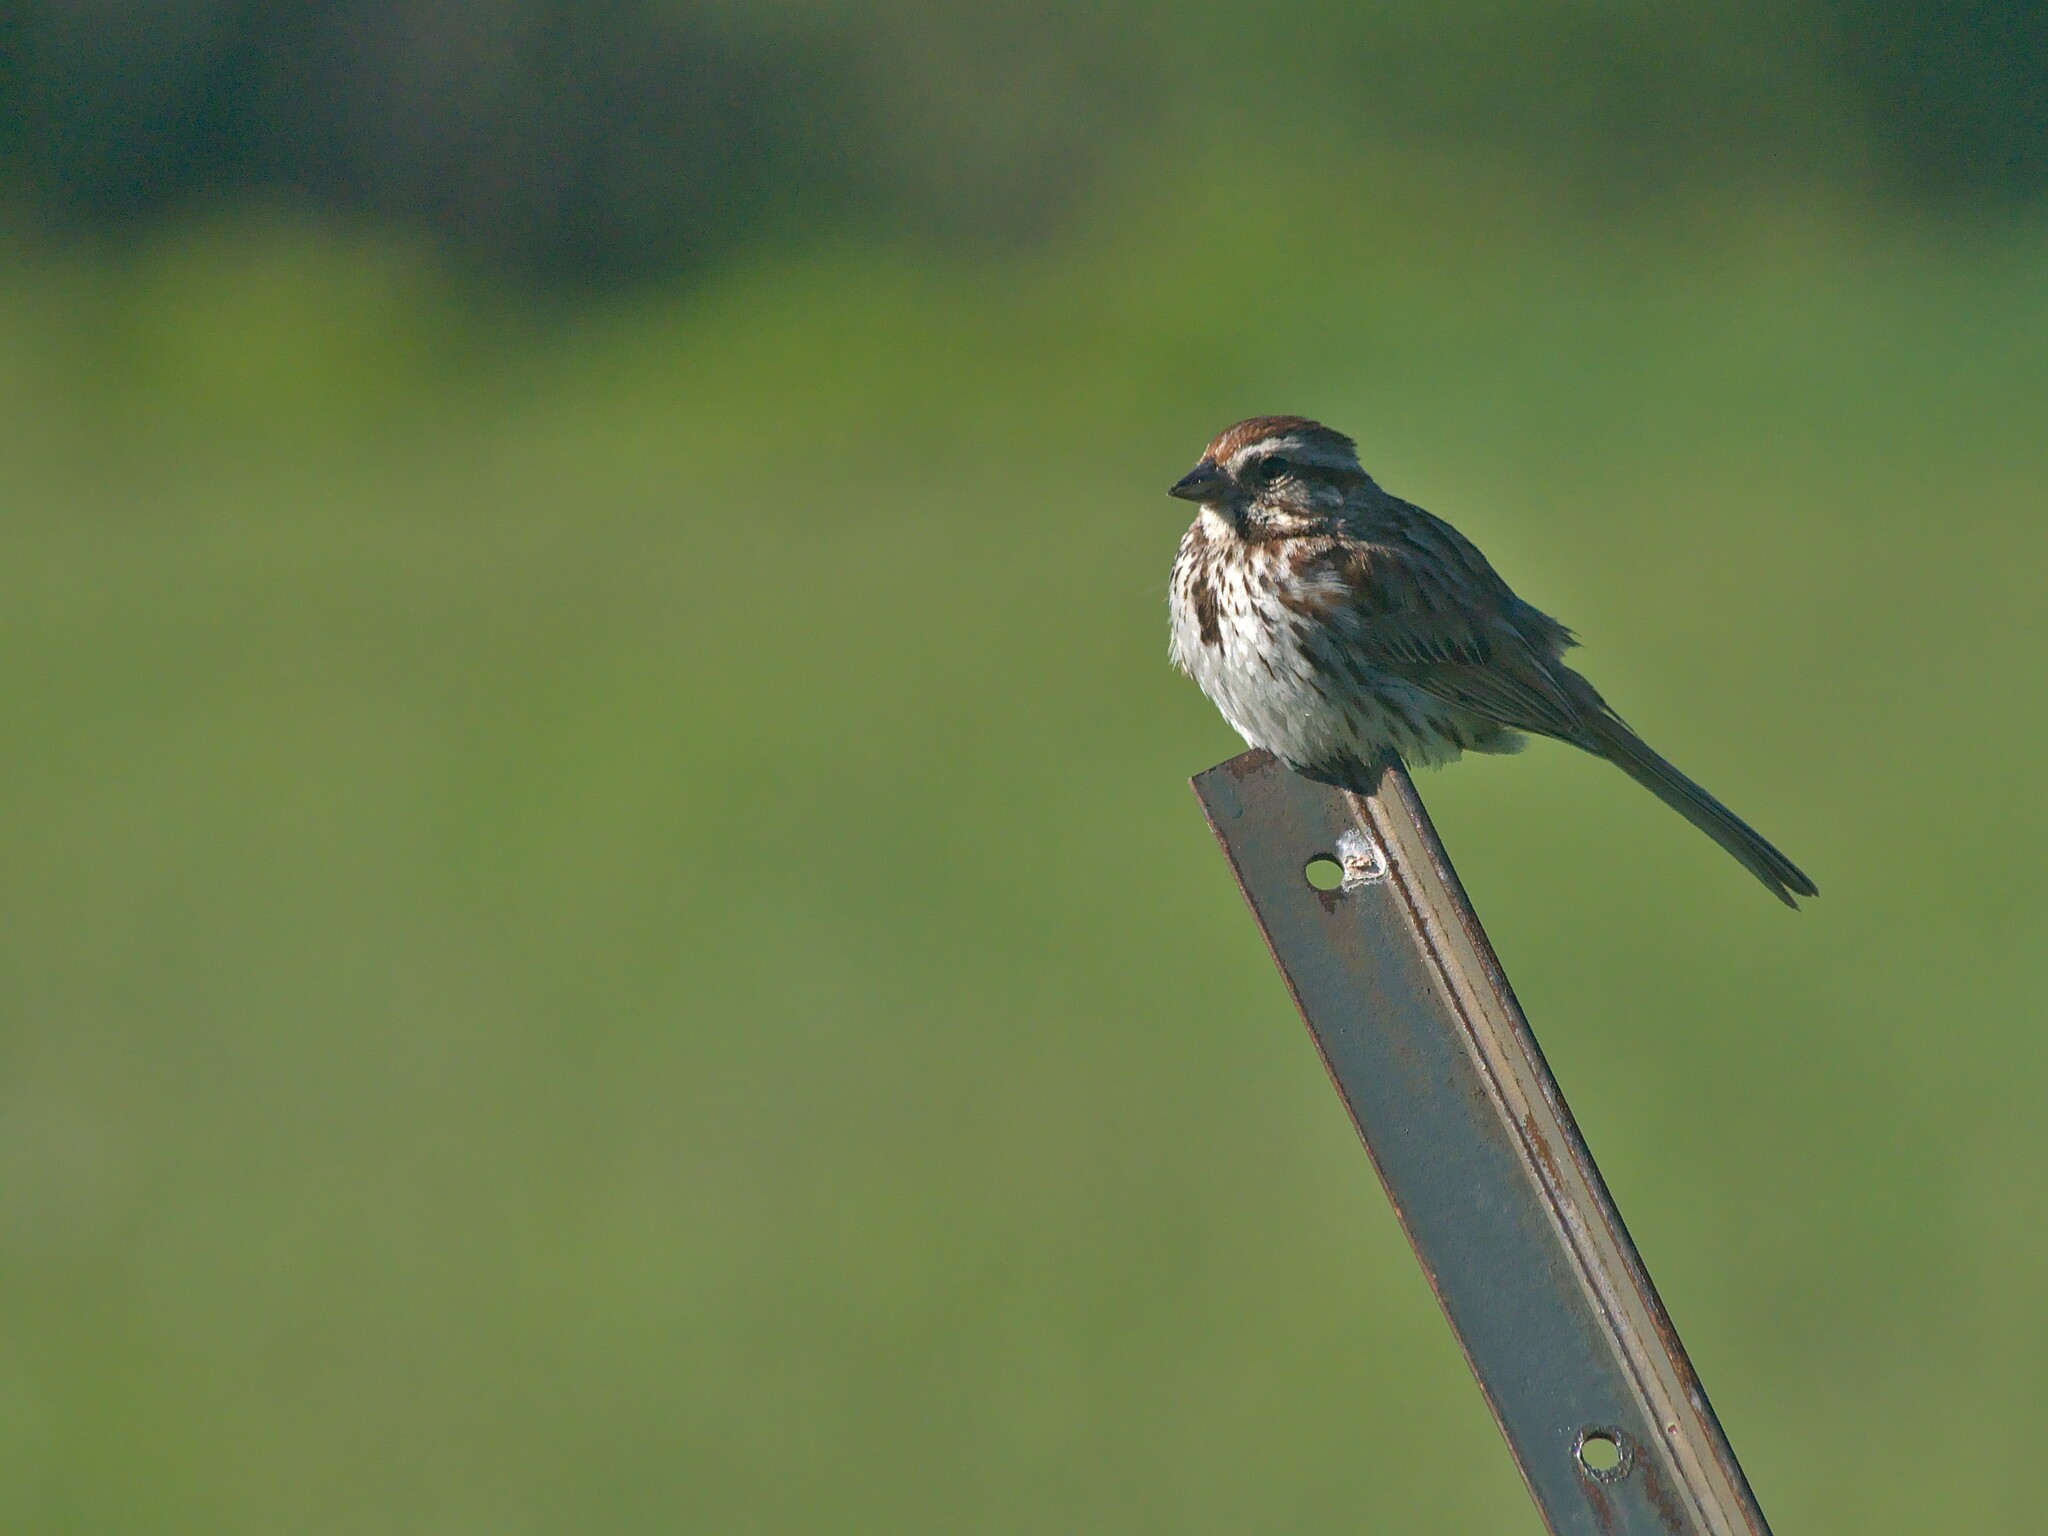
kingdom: Animalia
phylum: Chordata
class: Aves
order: Passeriformes
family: Passerellidae
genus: Melospiza
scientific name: Melospiza melodia
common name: Song sparrow
